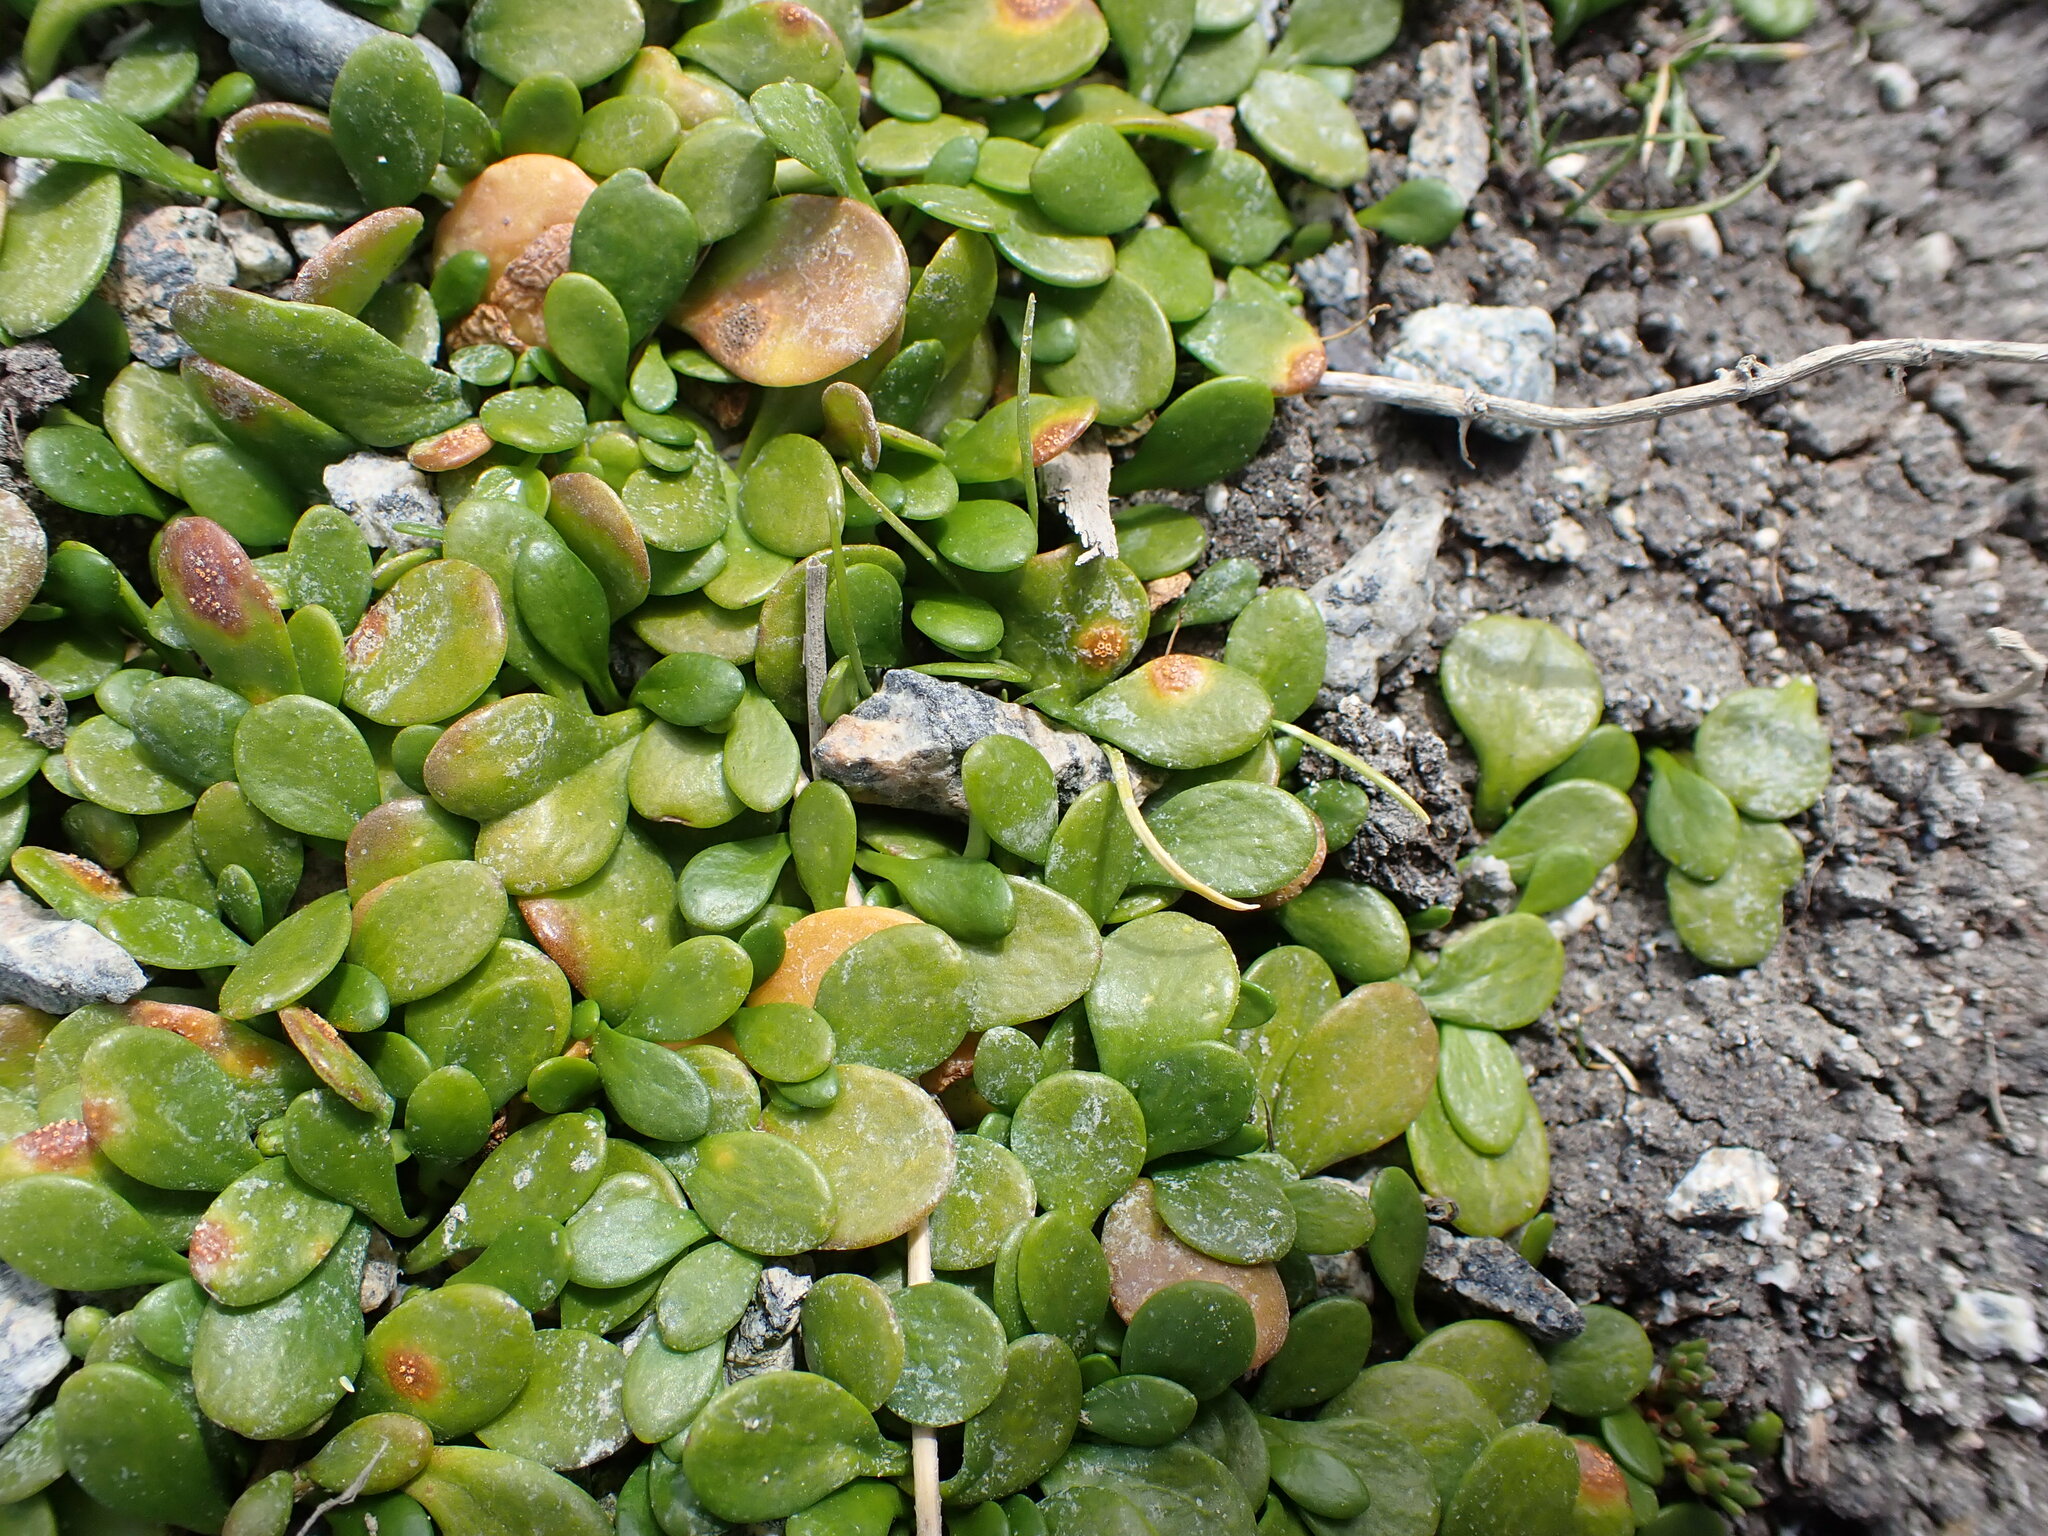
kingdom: Plantae
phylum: Tracheophyta
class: Magnoliopsida
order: Asterales
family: Goodeniaceae
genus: Goodenia
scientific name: Goodenia radicans
